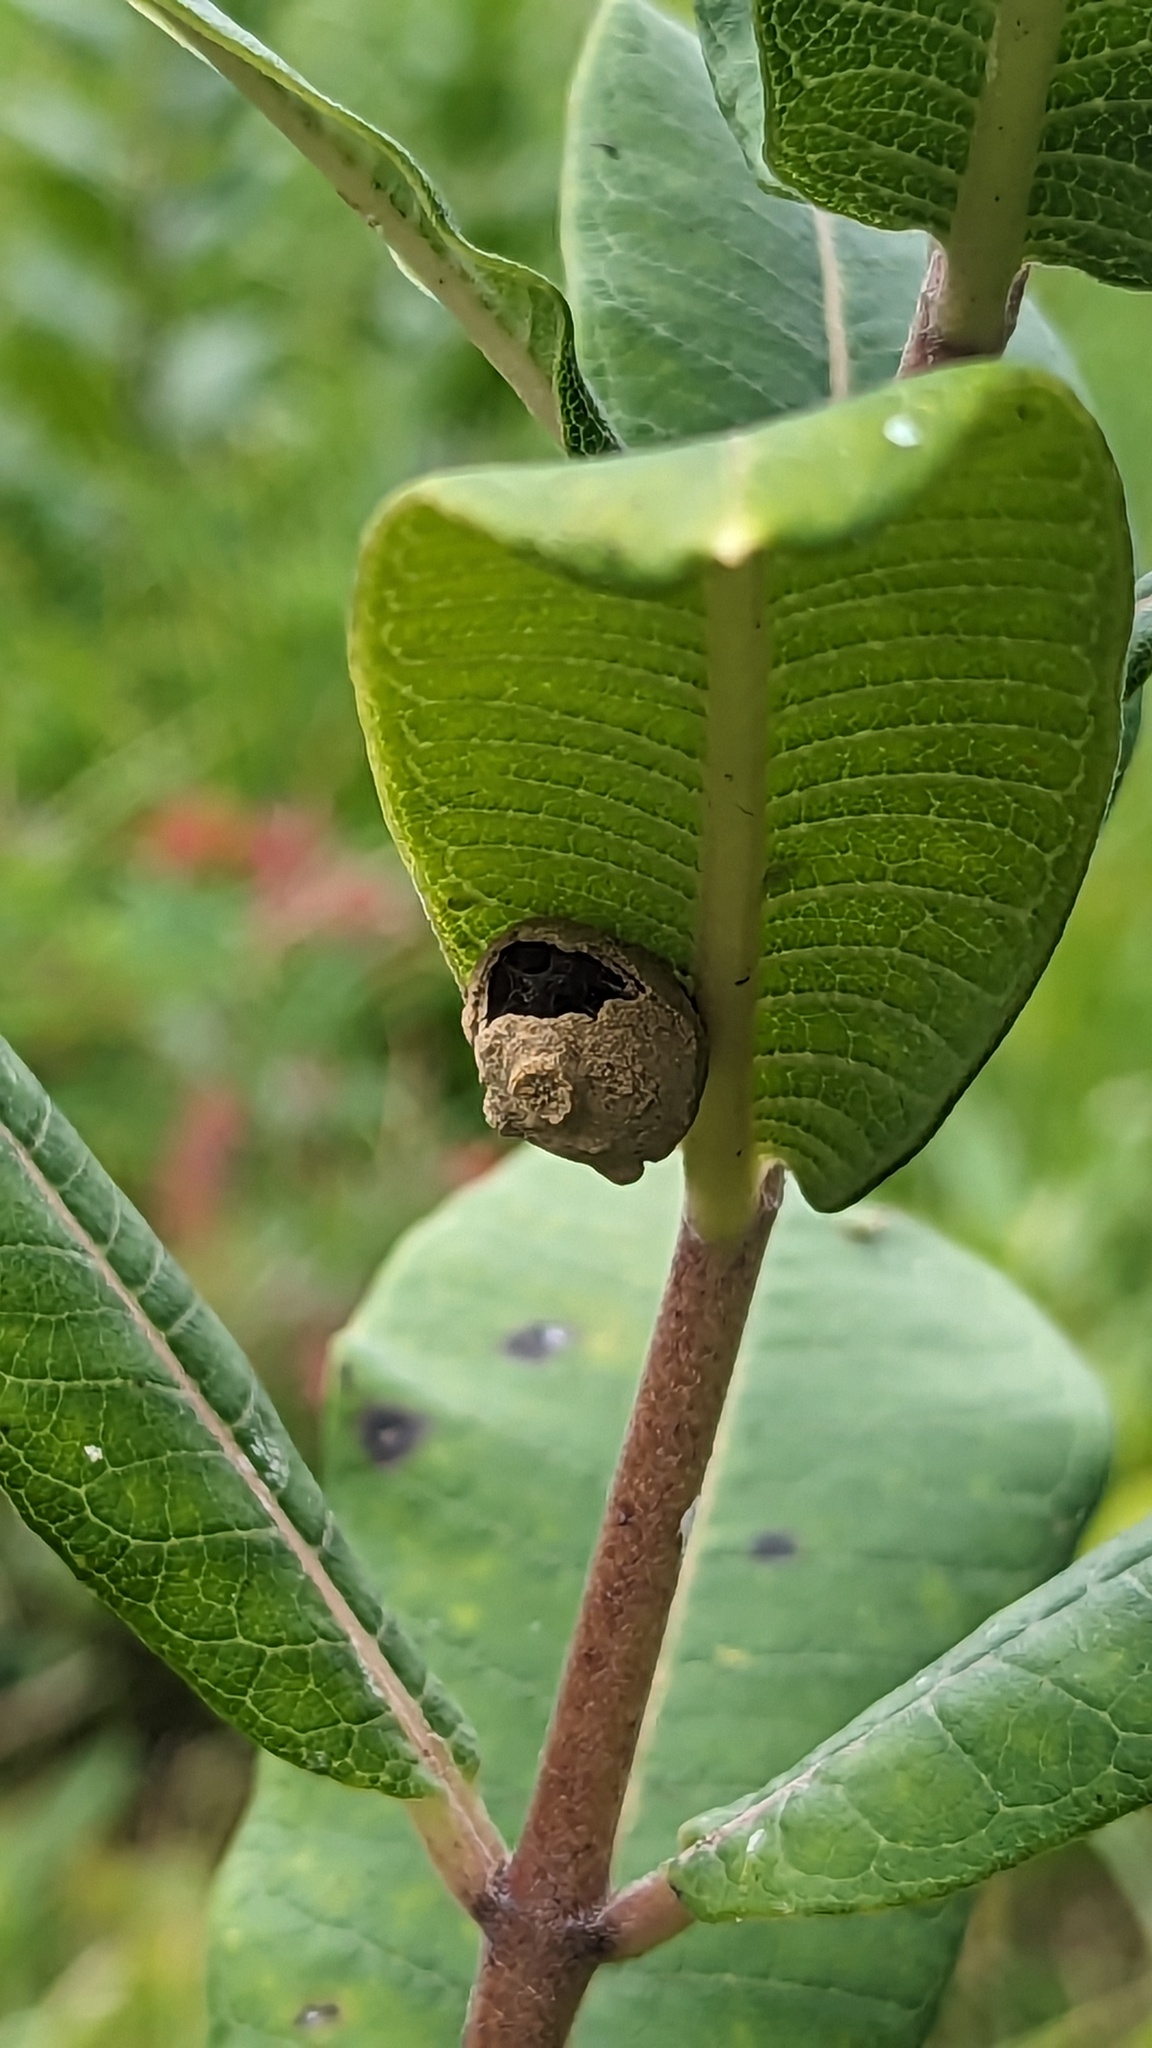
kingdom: Animalia
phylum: Arthropoda
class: Insecta
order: Hymenoptera
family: Vespidae
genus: Eumenes
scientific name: Eumenes
